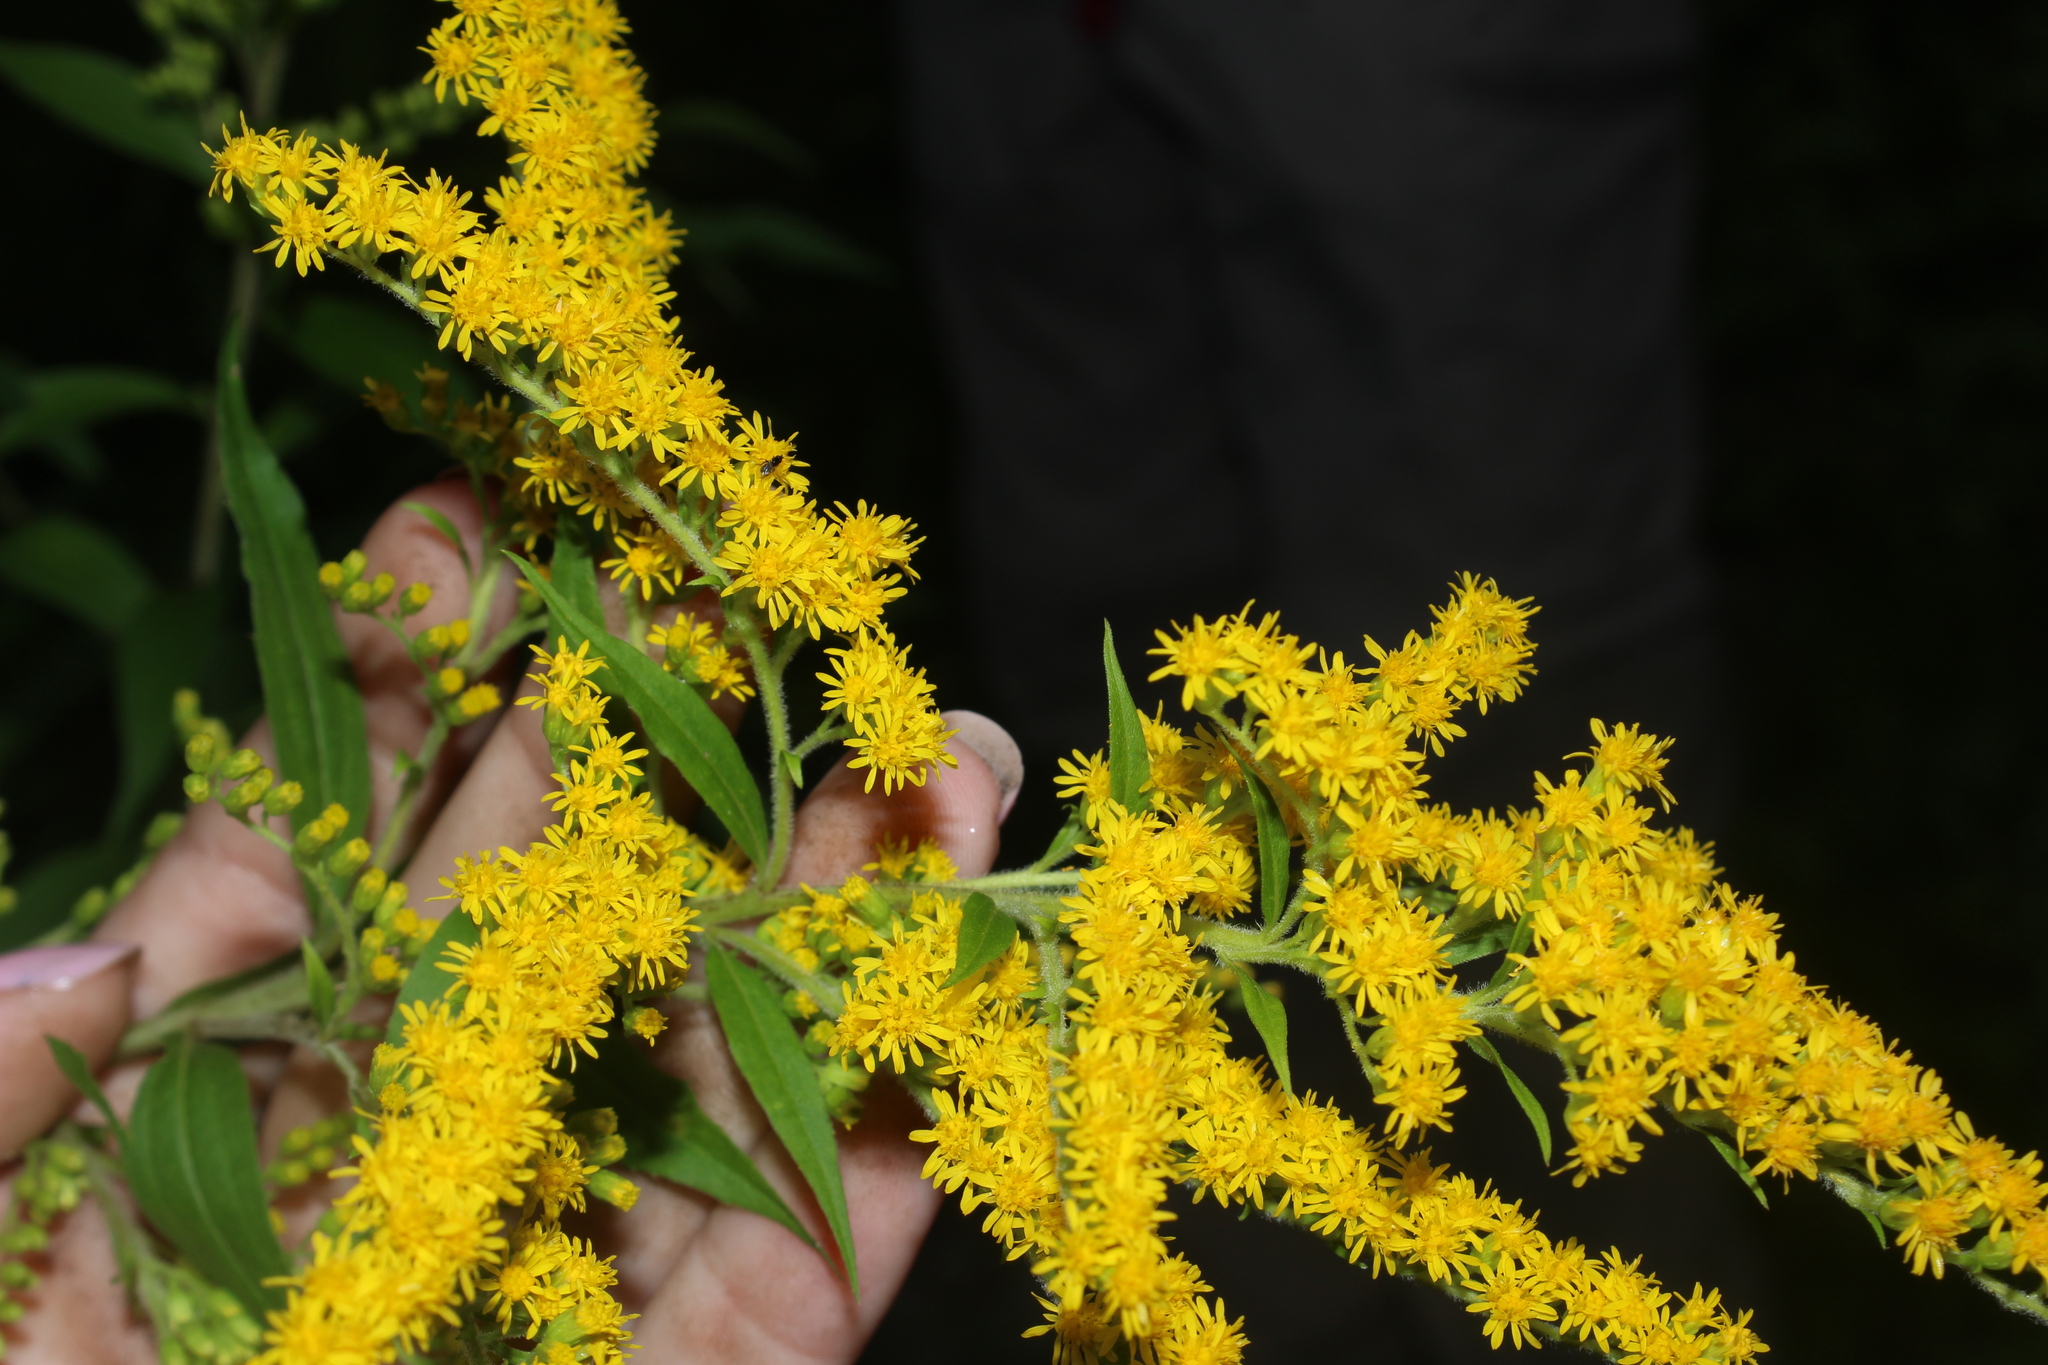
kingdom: Plantae
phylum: Tracheophyta
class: Magnoliopsida
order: Asterales
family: Asteraceae
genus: Solidago
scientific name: Solidago gigantea
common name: Giant goldenrod
